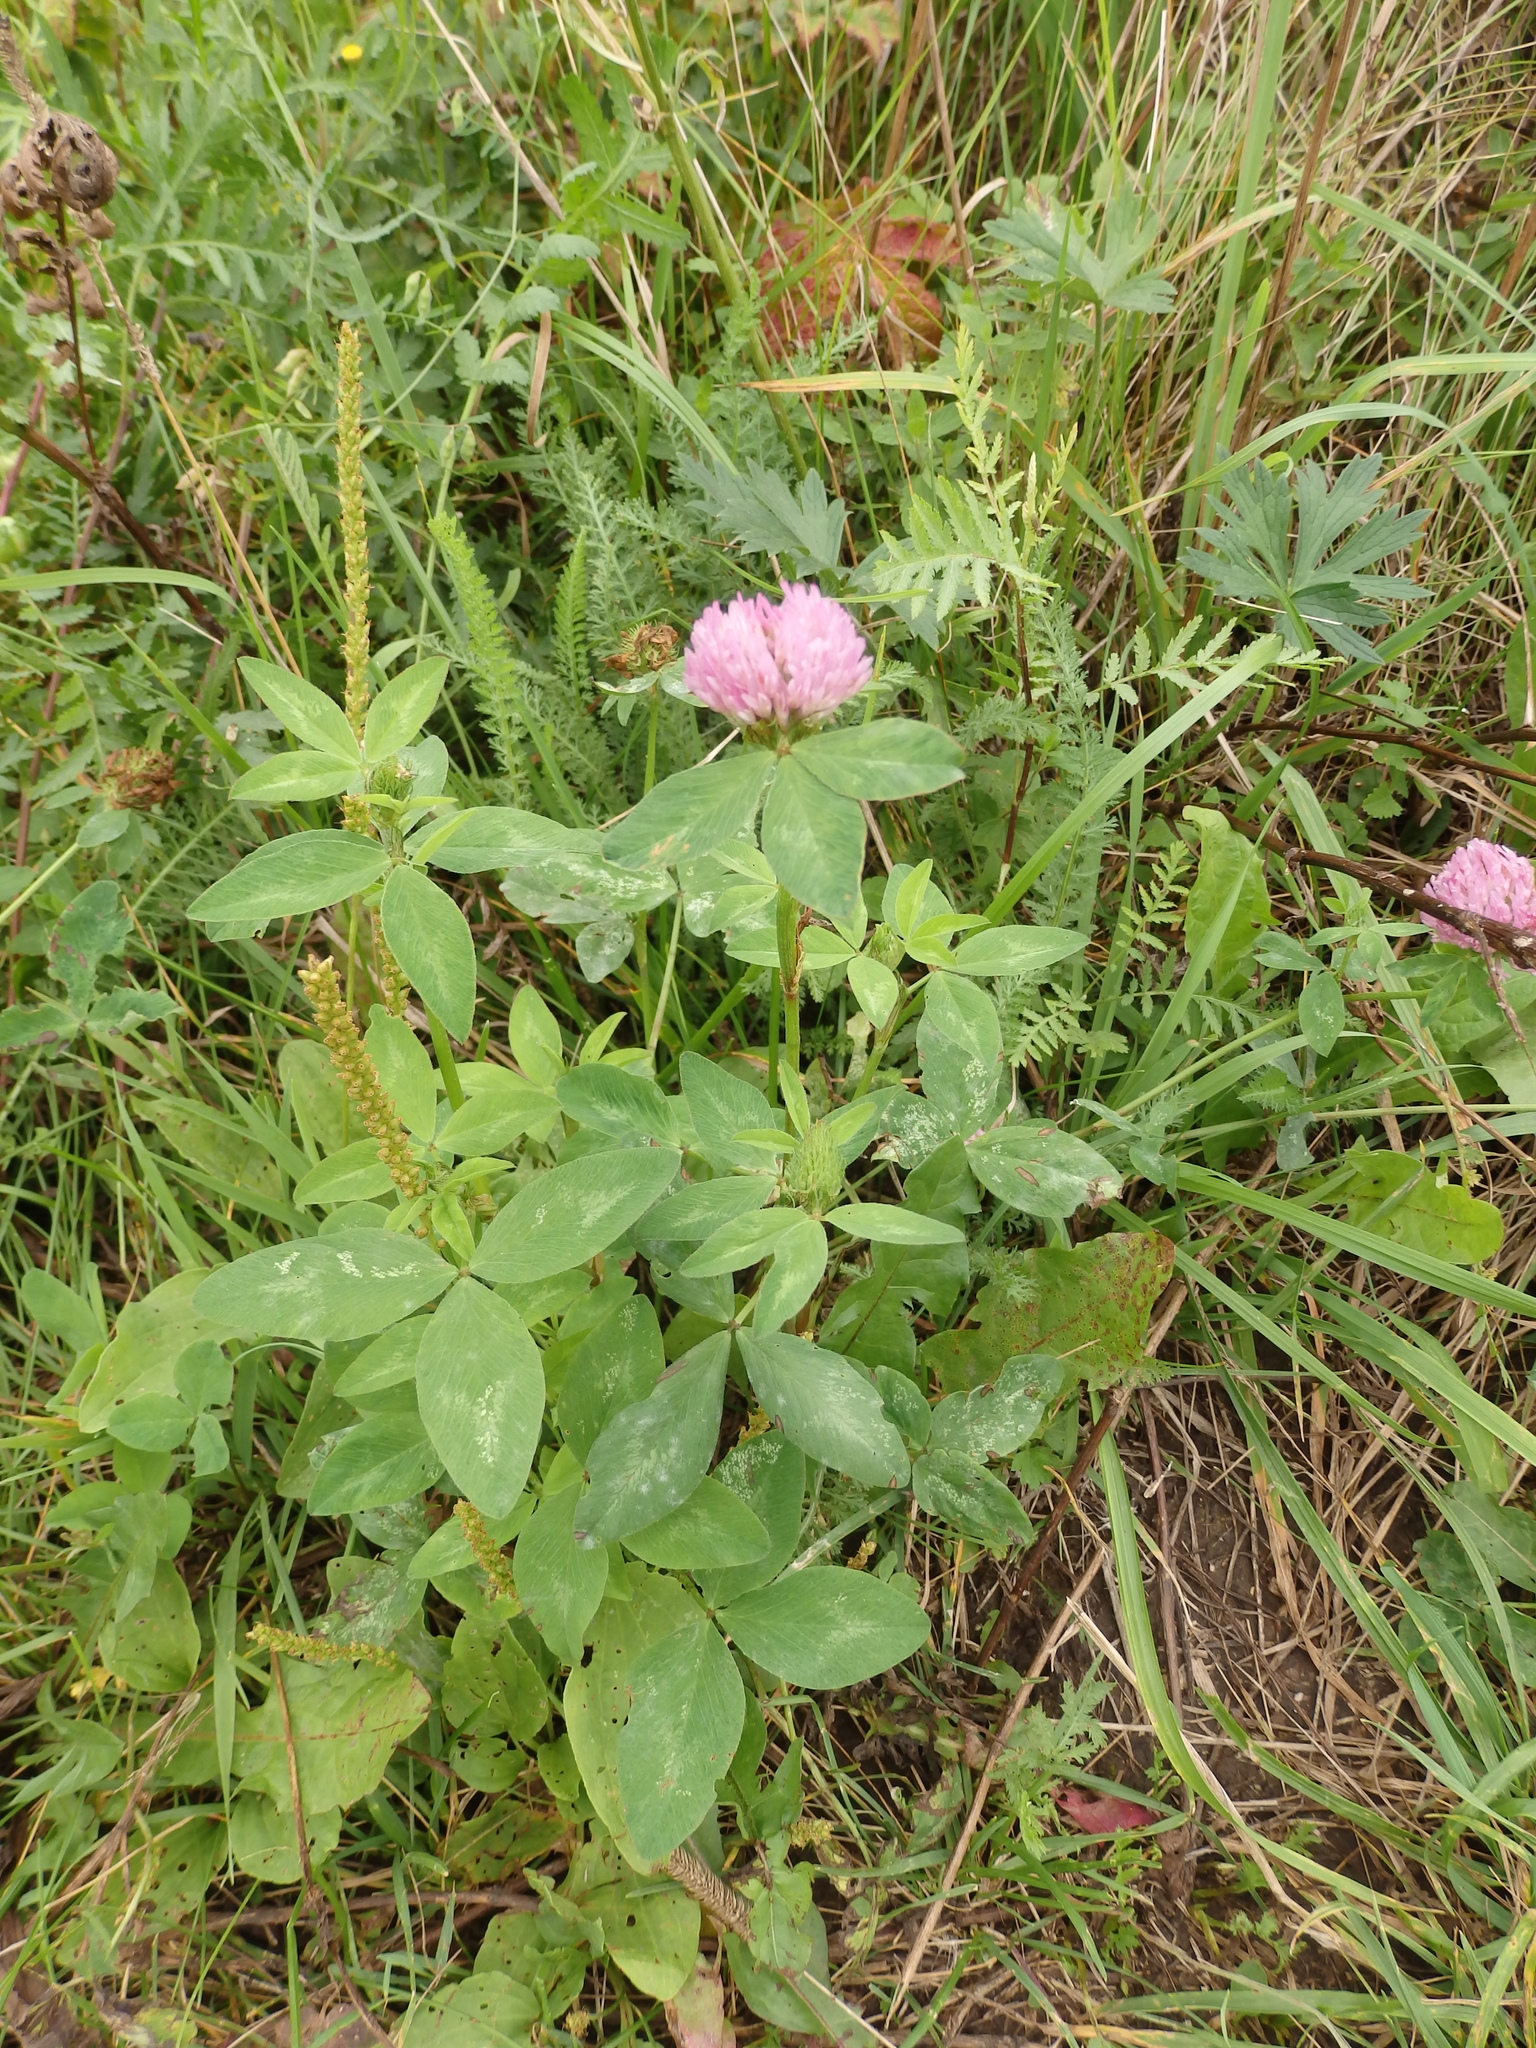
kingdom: Plantae
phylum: Tracheophyta
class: Magnoliopsida
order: Fabales
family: Fabaceae
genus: Trifolium
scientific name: Trifolium pratense
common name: Red clover
